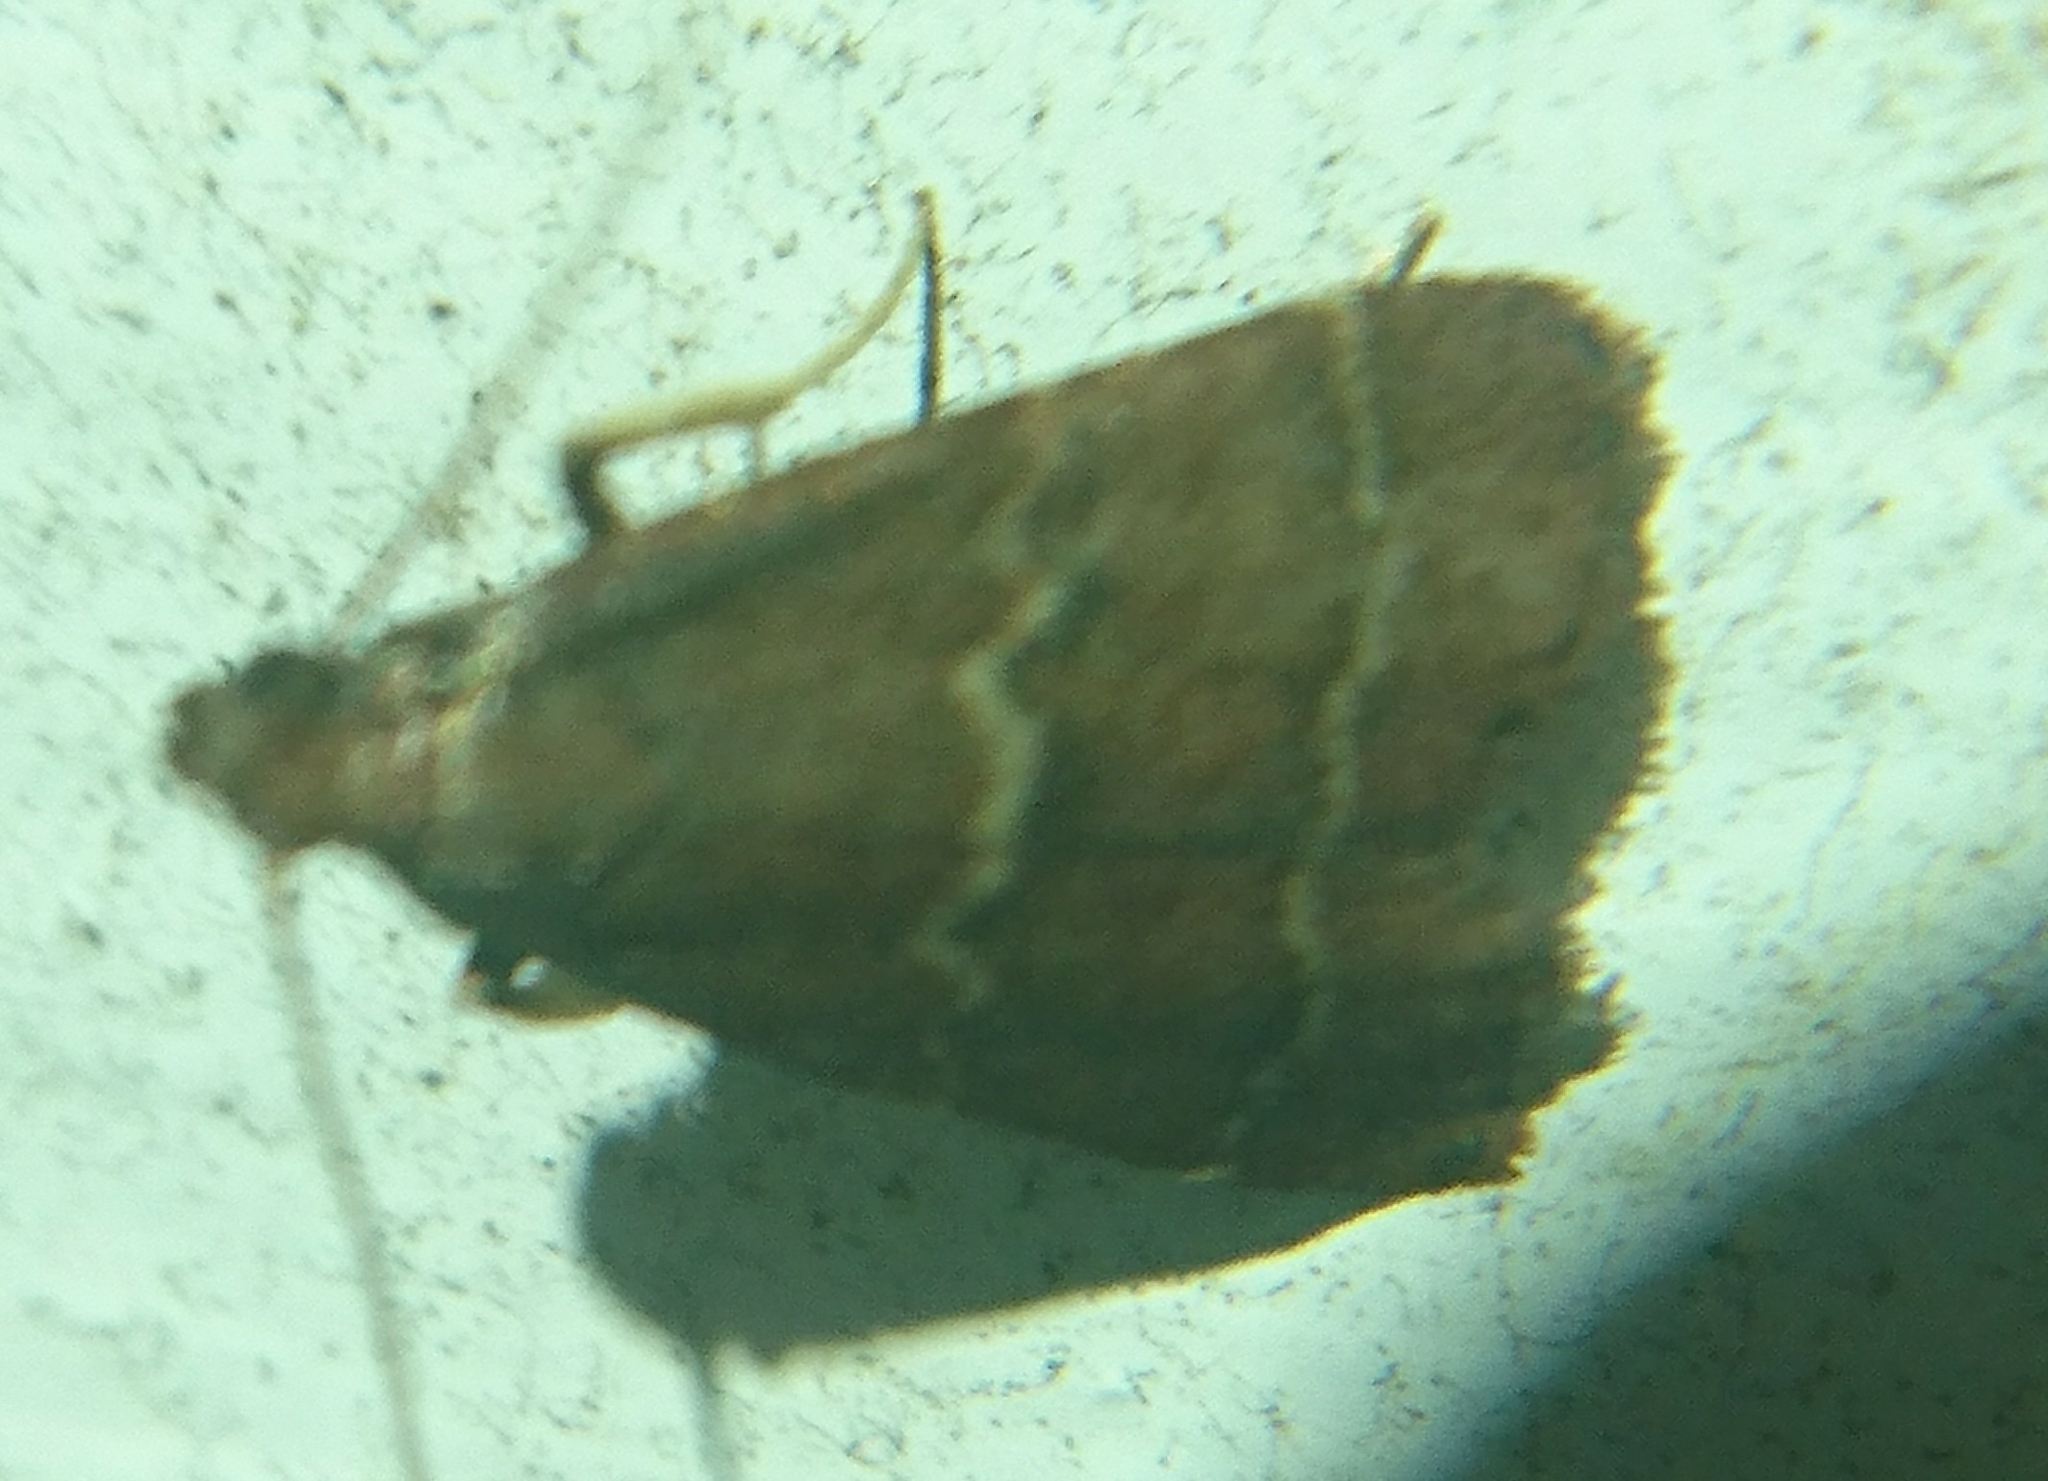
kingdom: Animalia
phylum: Arthropoda
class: Insecta
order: Lepidoptera
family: Pyralidae
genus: Arta
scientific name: Arta
